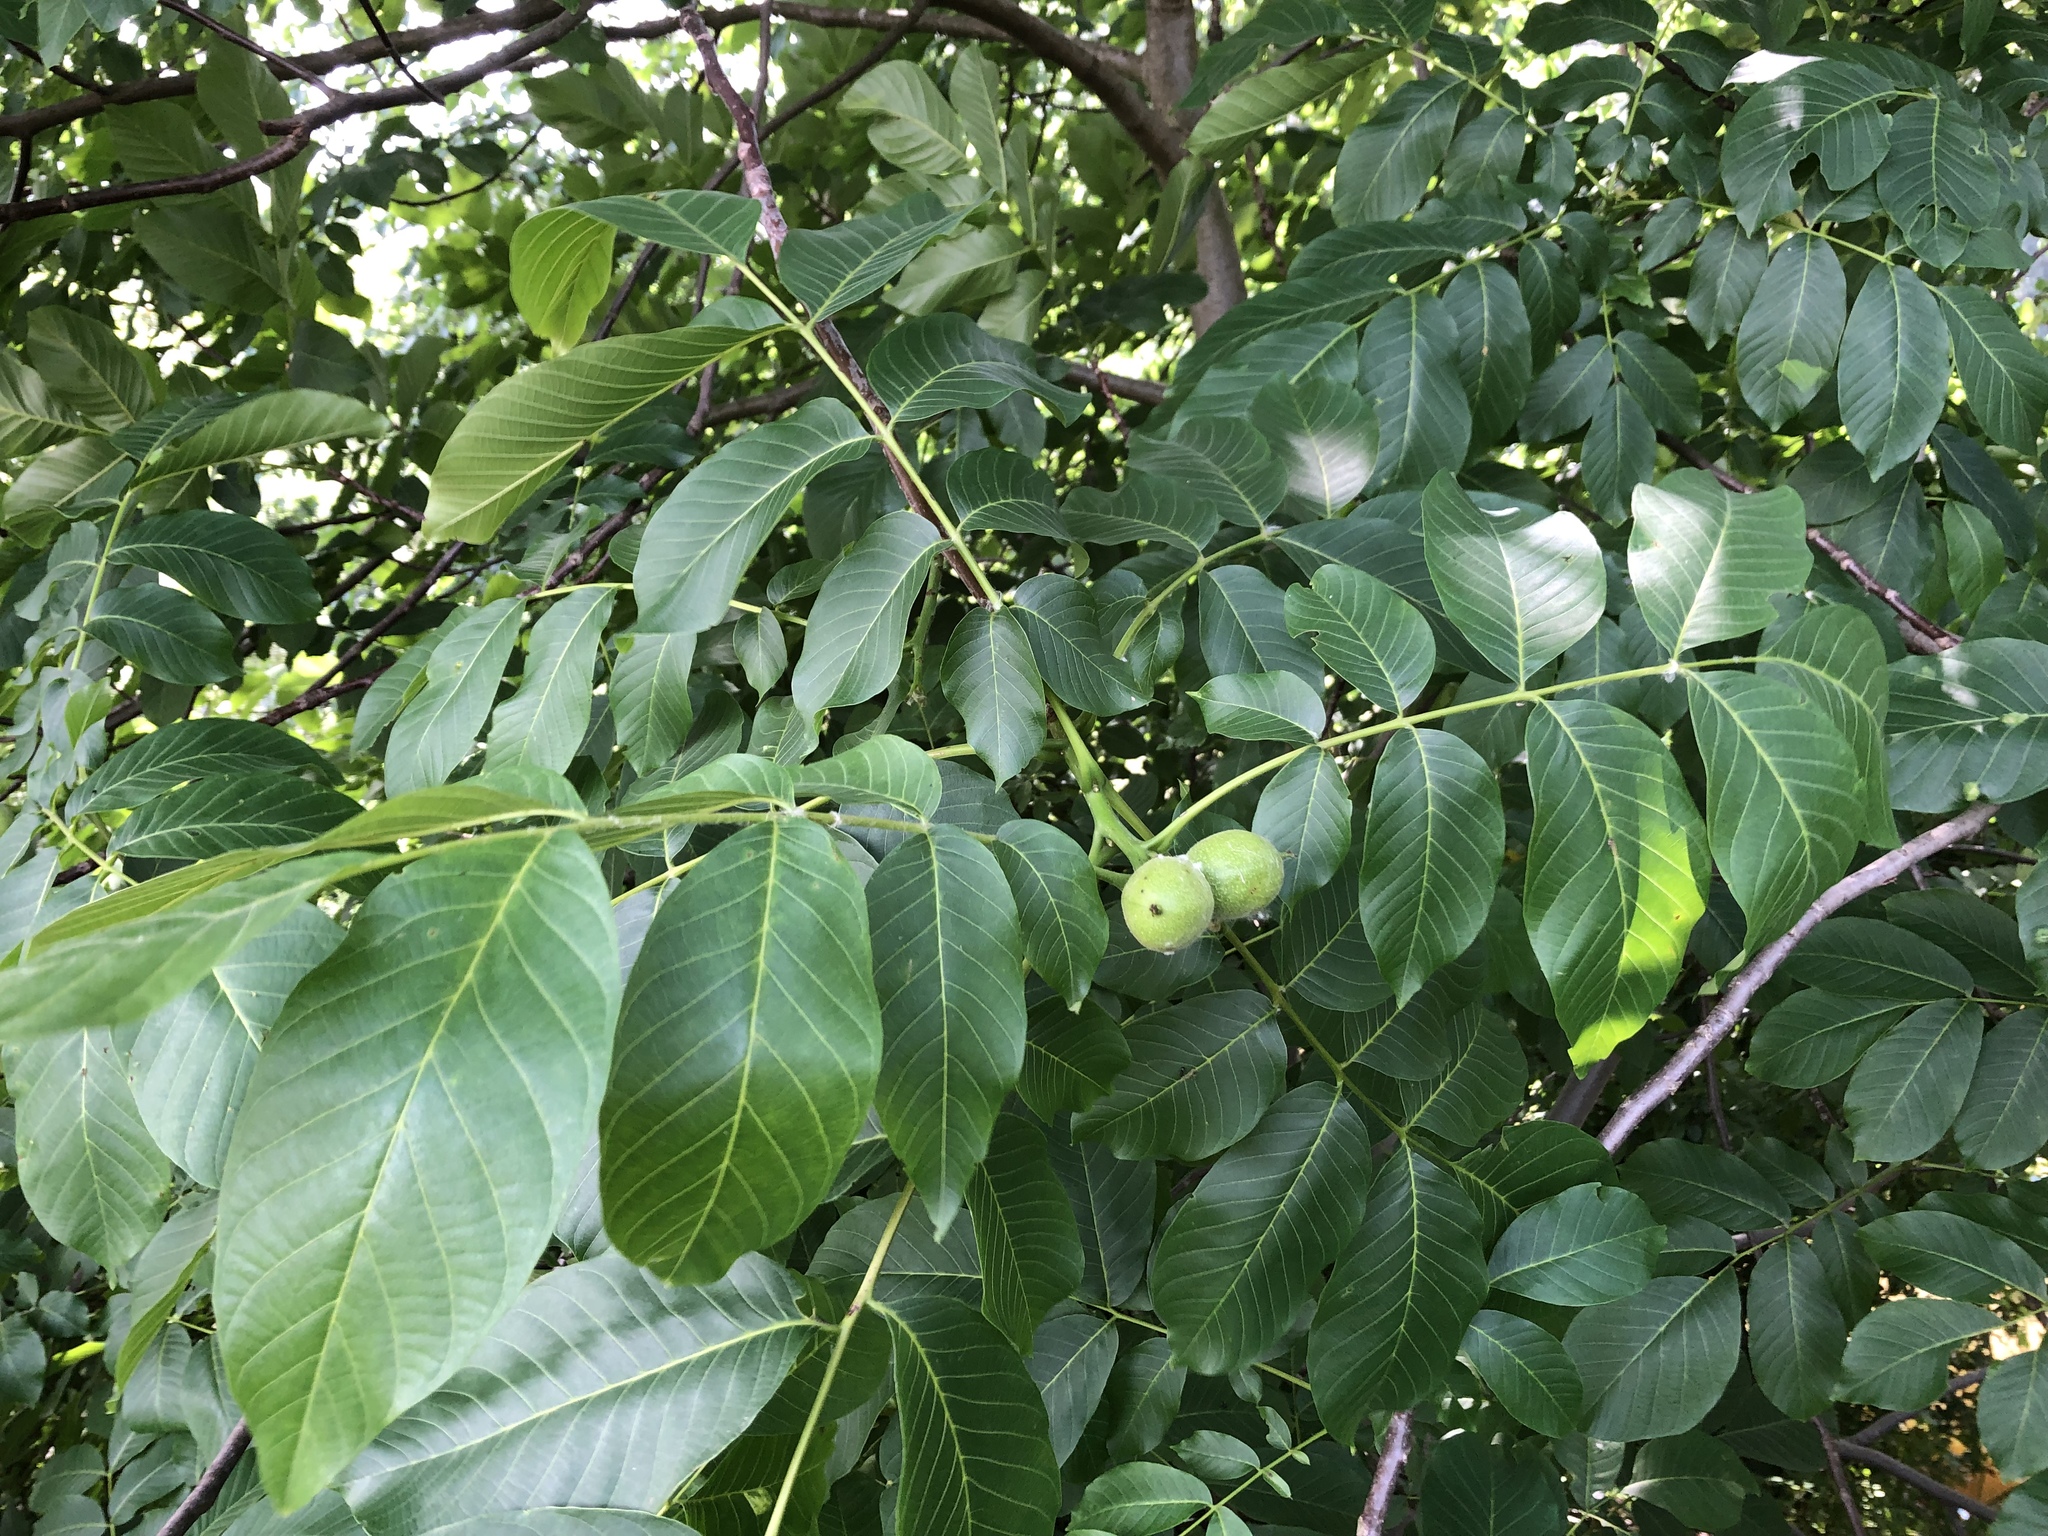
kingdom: Plantae
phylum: Tracheophyta
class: Magnoliopsida
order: Fagales
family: Juglandaceae
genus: Juglans
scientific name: Juglans regia
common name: Walnut
